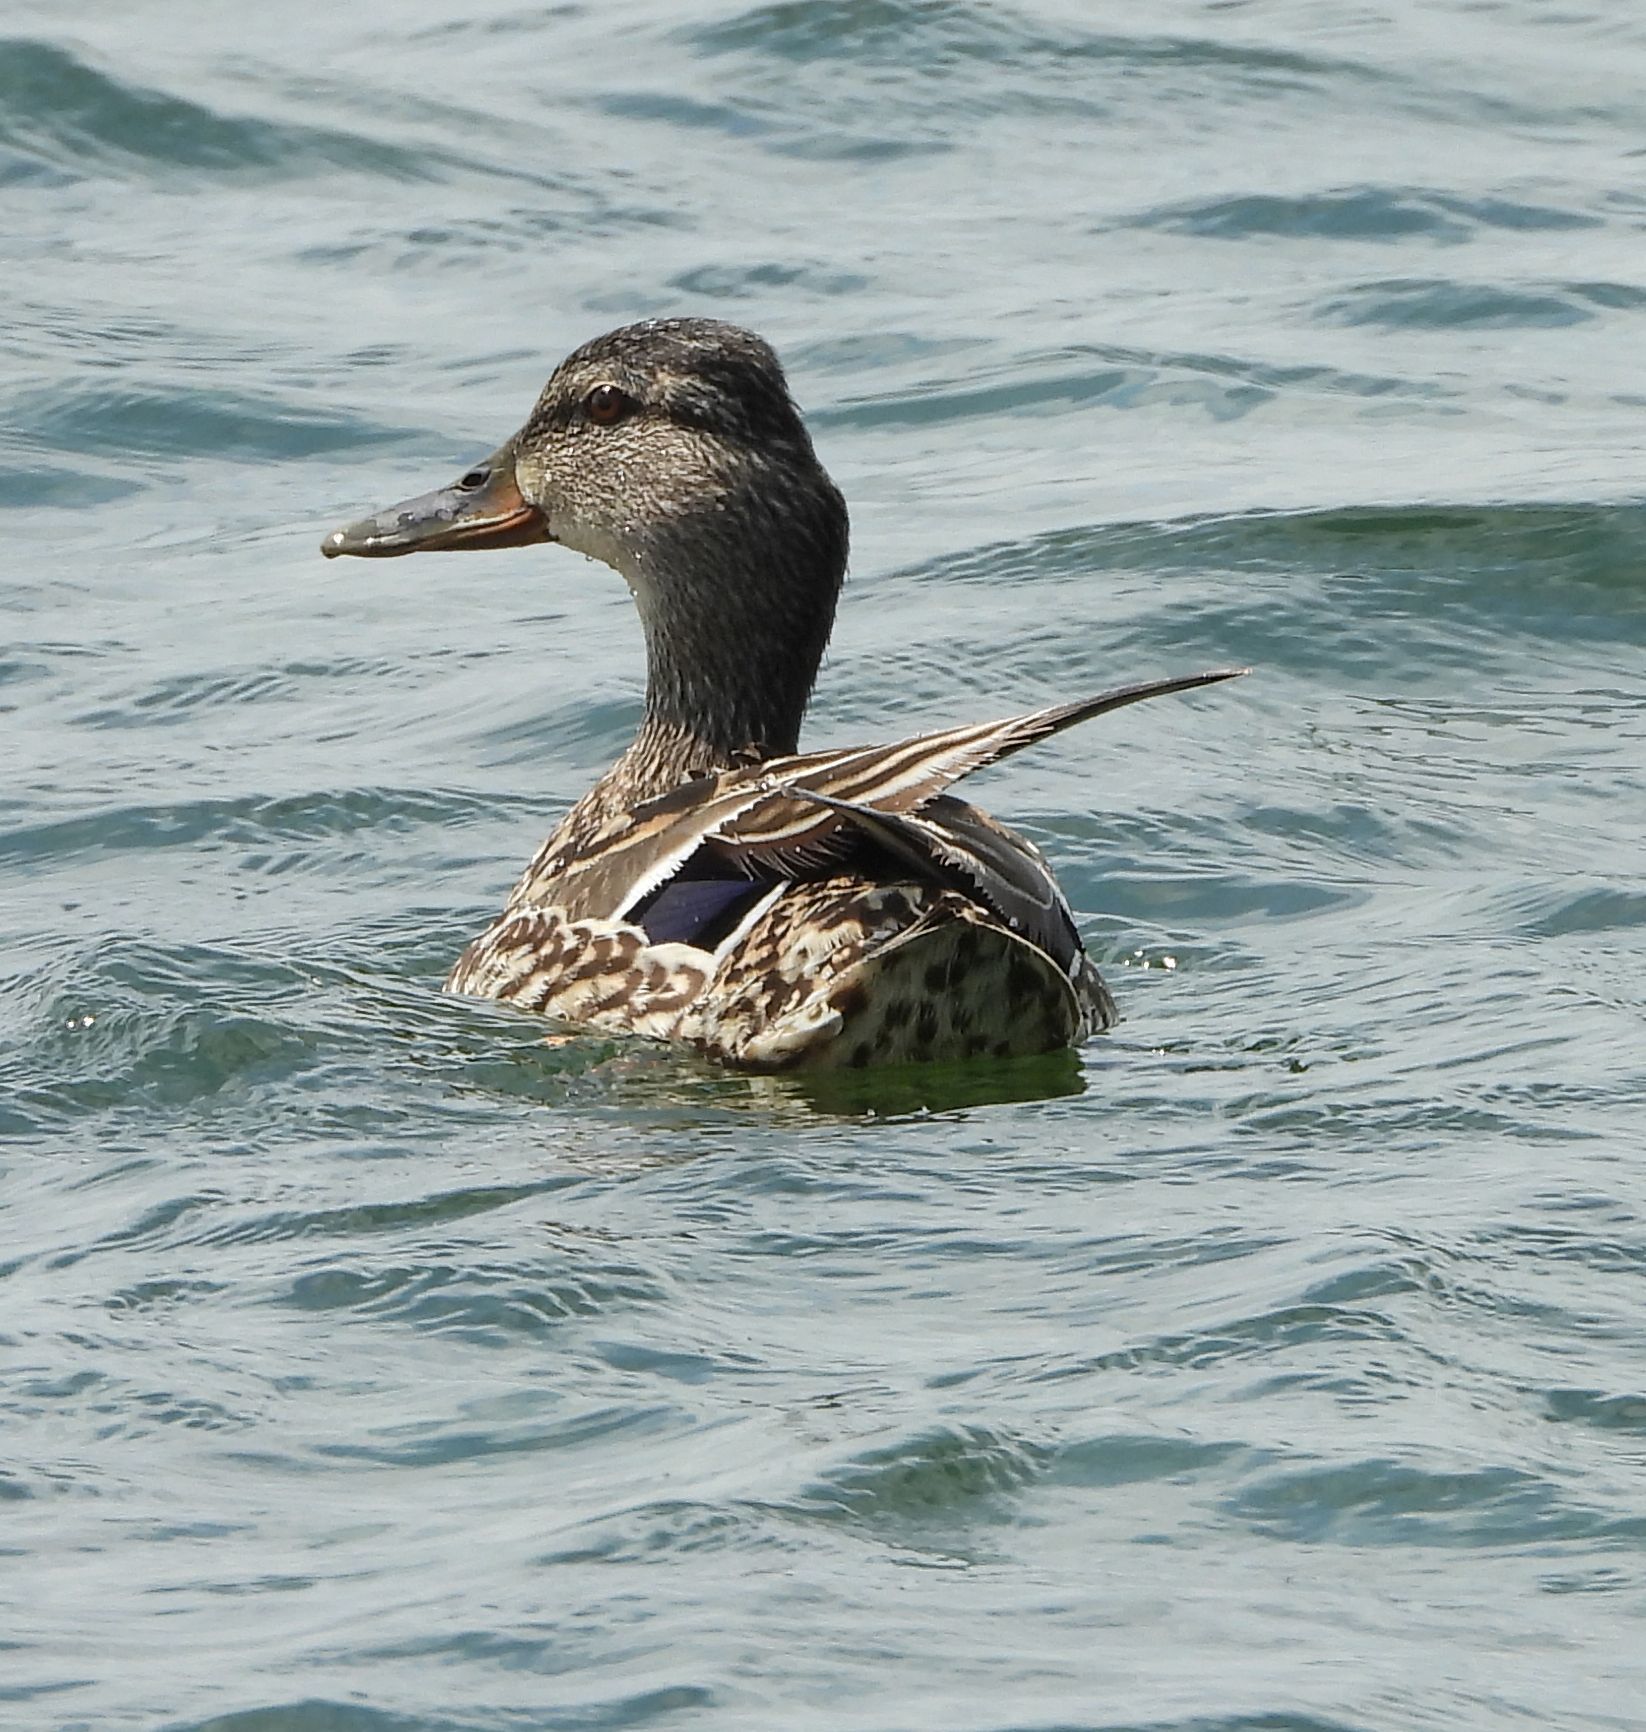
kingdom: Animalia
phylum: Chordata
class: Aves
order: Anseriformes
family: Anatidae
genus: Anas
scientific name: Anas platyrhynchos
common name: Mallard
